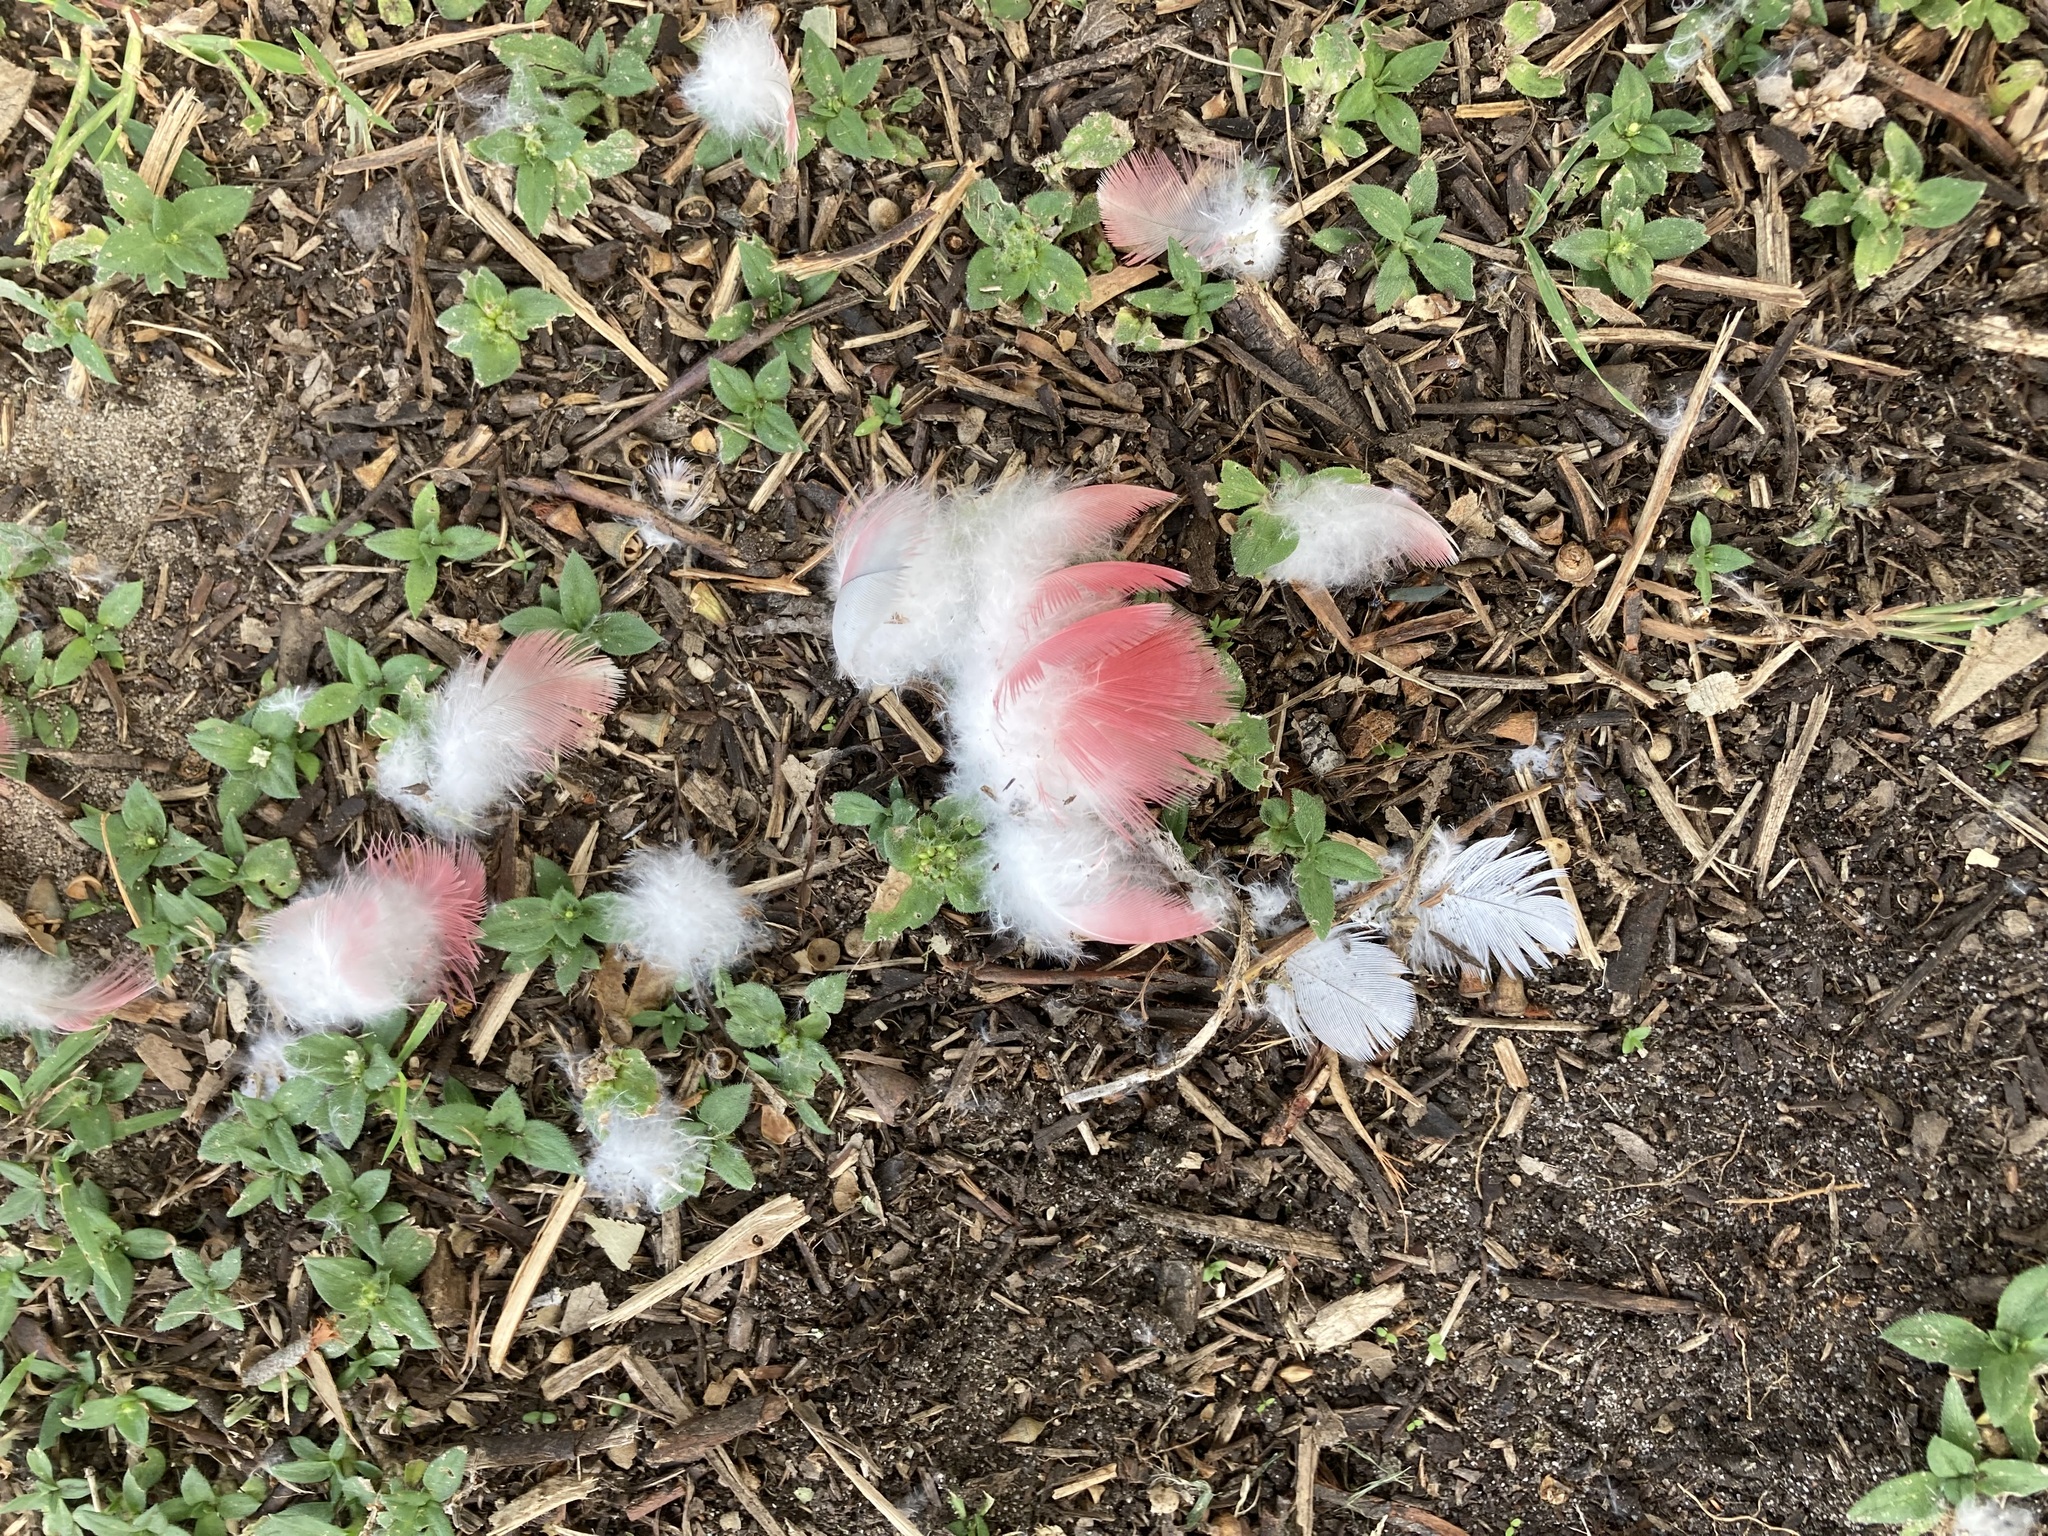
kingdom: Animalia
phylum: Chordata
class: Aves
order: Psittaciformes
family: Psittacidae
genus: Eolophus
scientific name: Eolophus roseicapilla
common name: Galah
